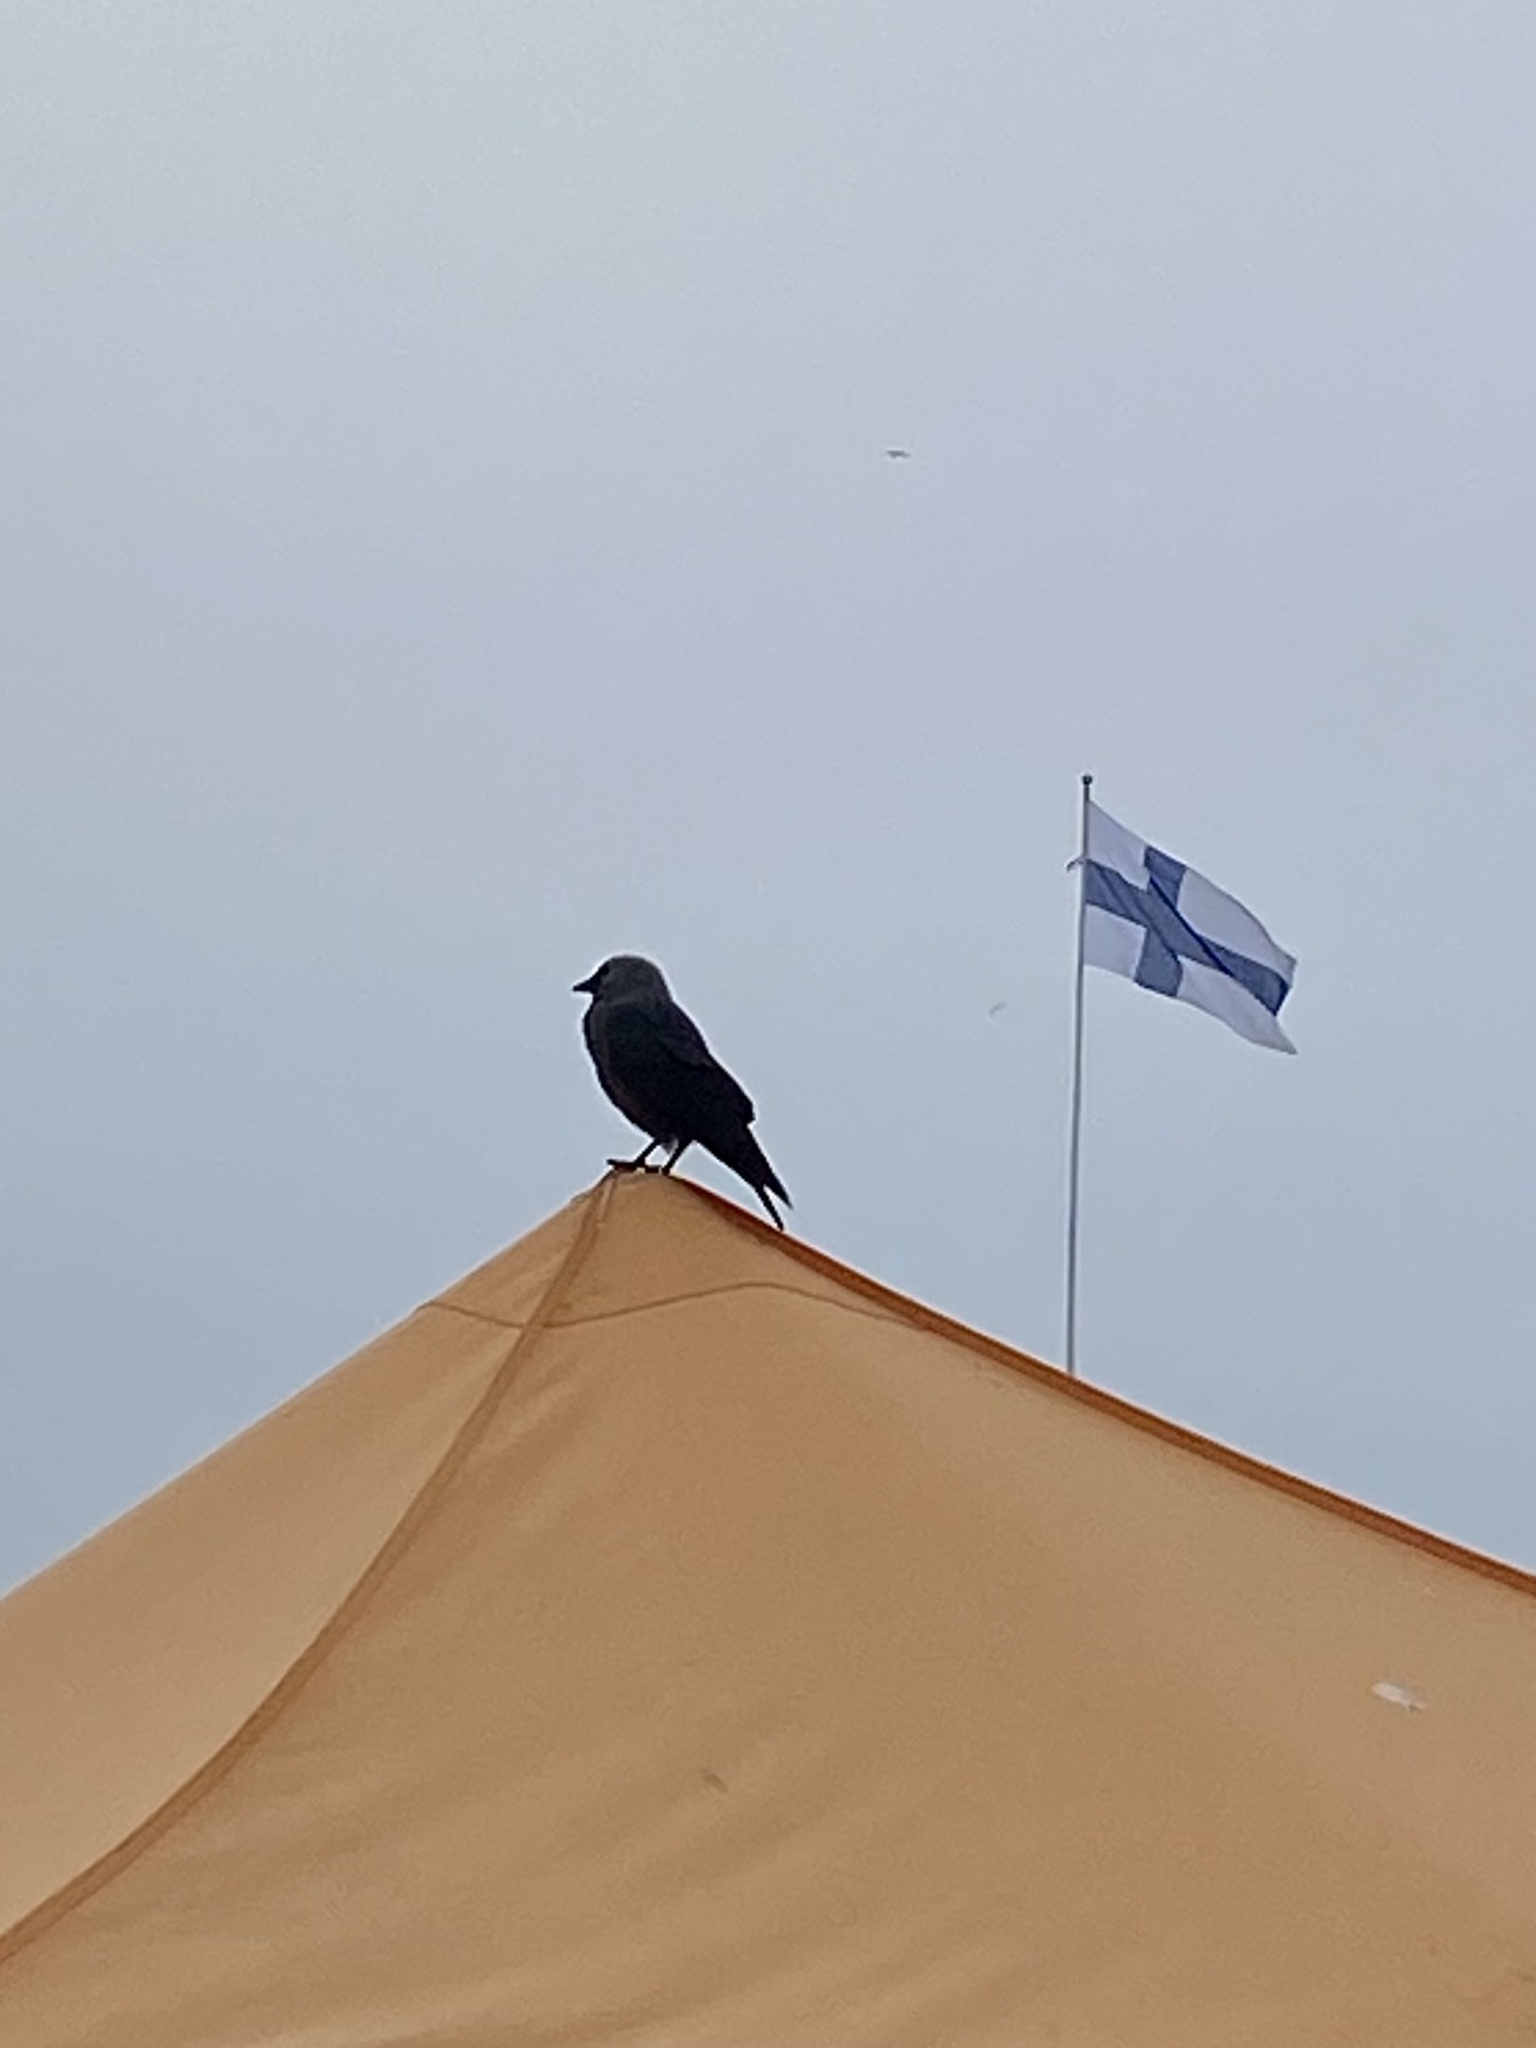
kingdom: Animalia
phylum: Chordata
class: Aves
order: Passeriformes
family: Corvidae
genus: Coloeus
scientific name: Coloeus monedula
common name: Western jackdaw
